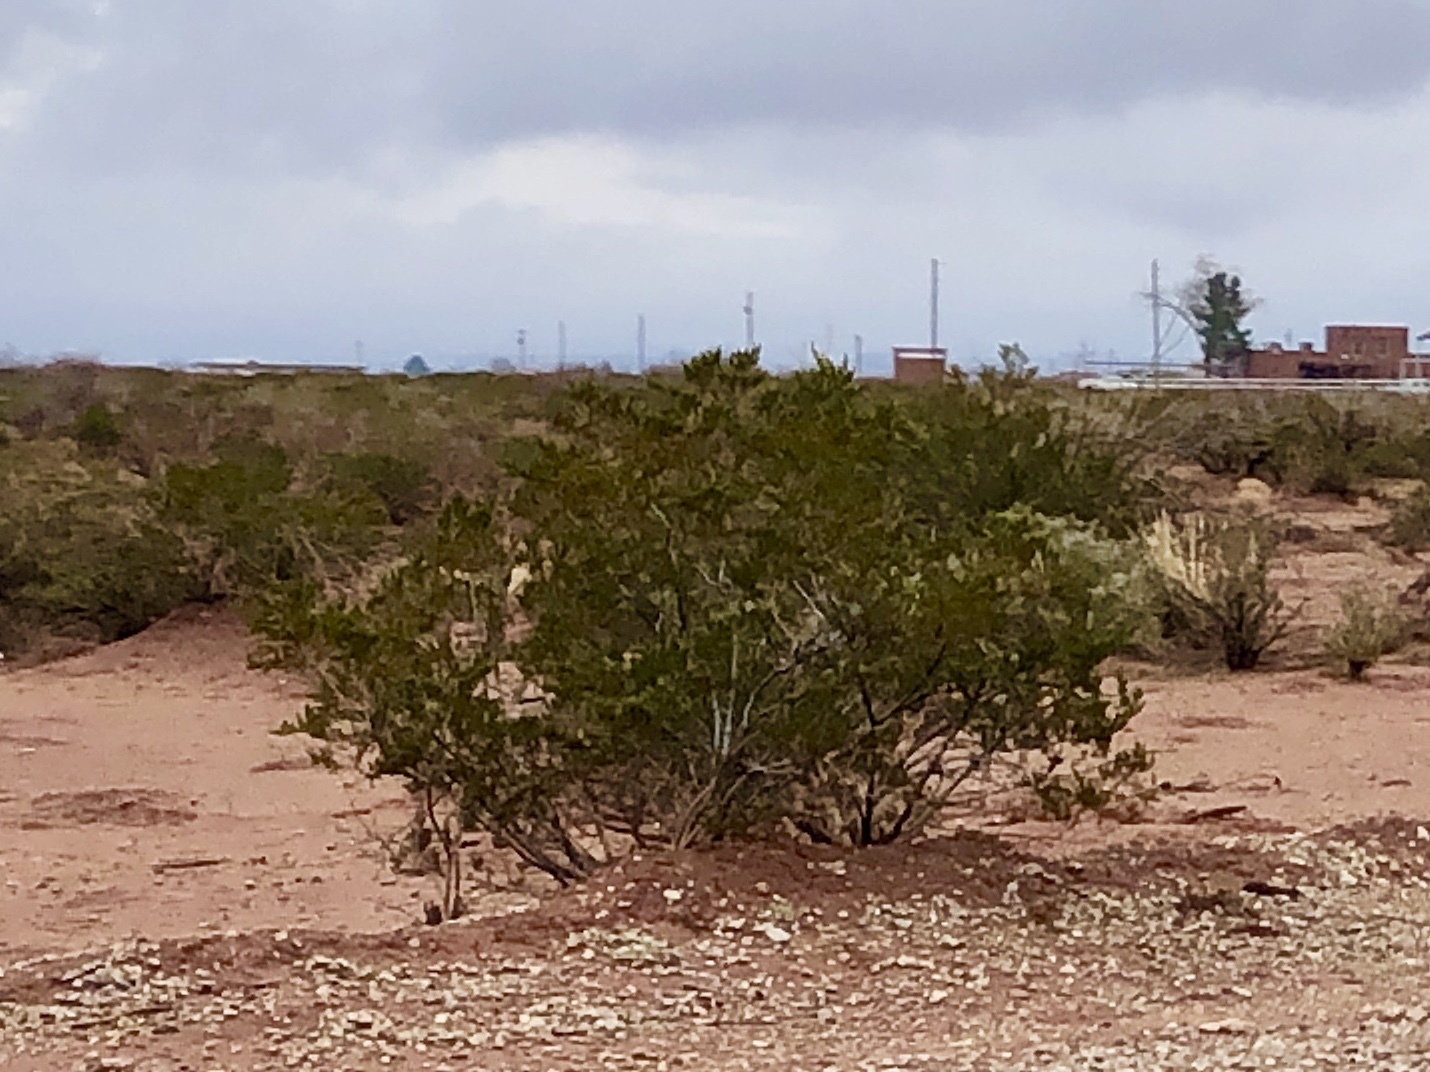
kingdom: Plantae
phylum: Tracheophyta
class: Magnoliopsida
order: Zygophyllales
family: Zygophyllaceae
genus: Larrea
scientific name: Larrea tridentata
